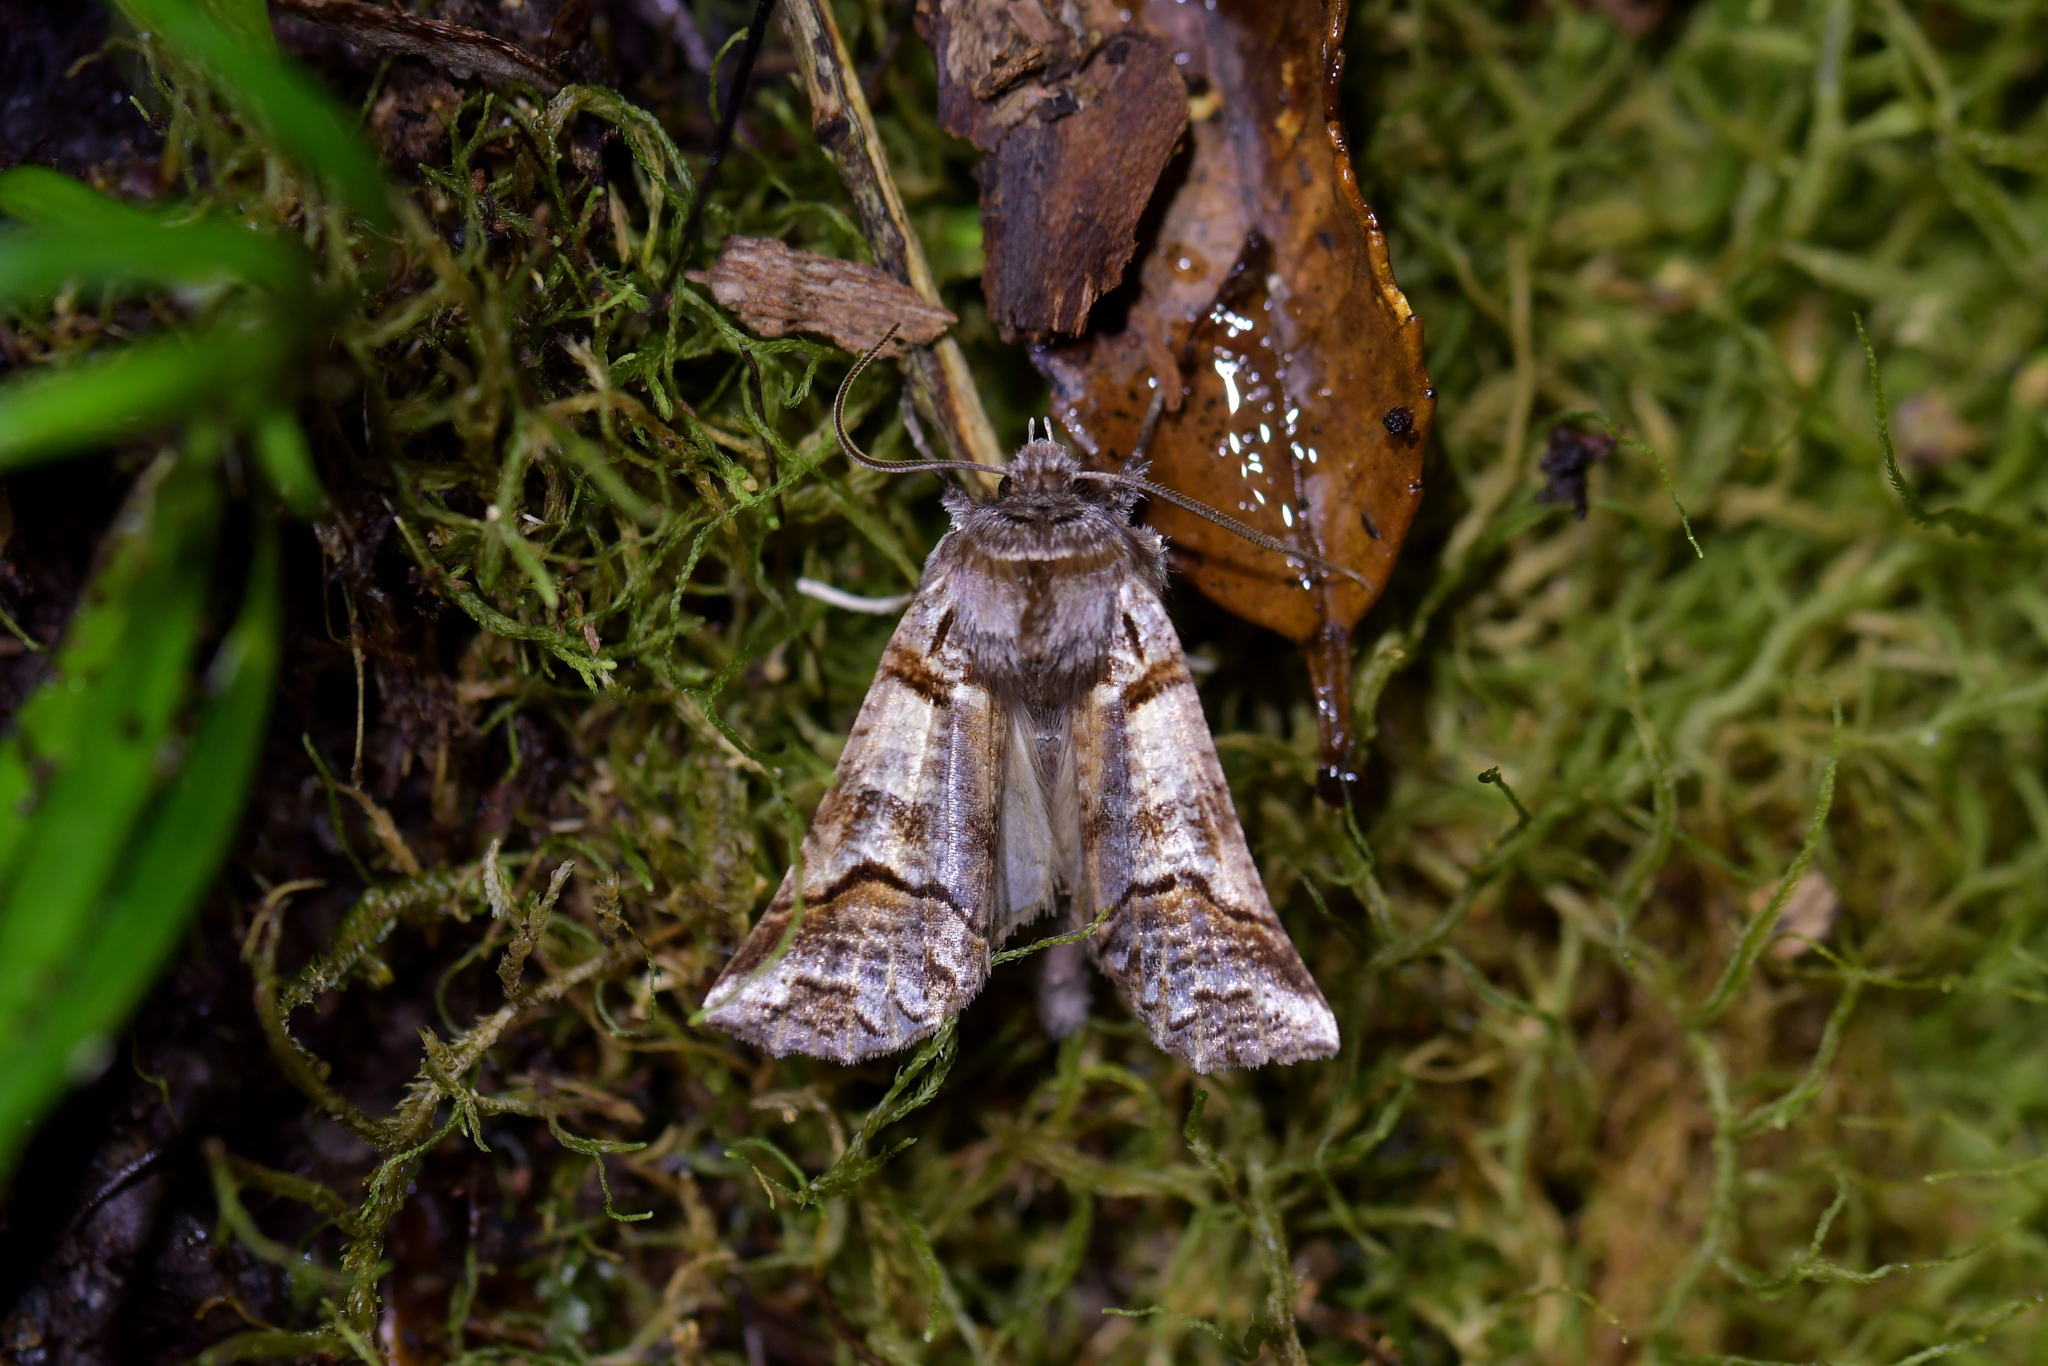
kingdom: Animalia
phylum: Arthropoda
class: Insecta
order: Lepidoptera
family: Geometridae
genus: Declana
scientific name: Declana
